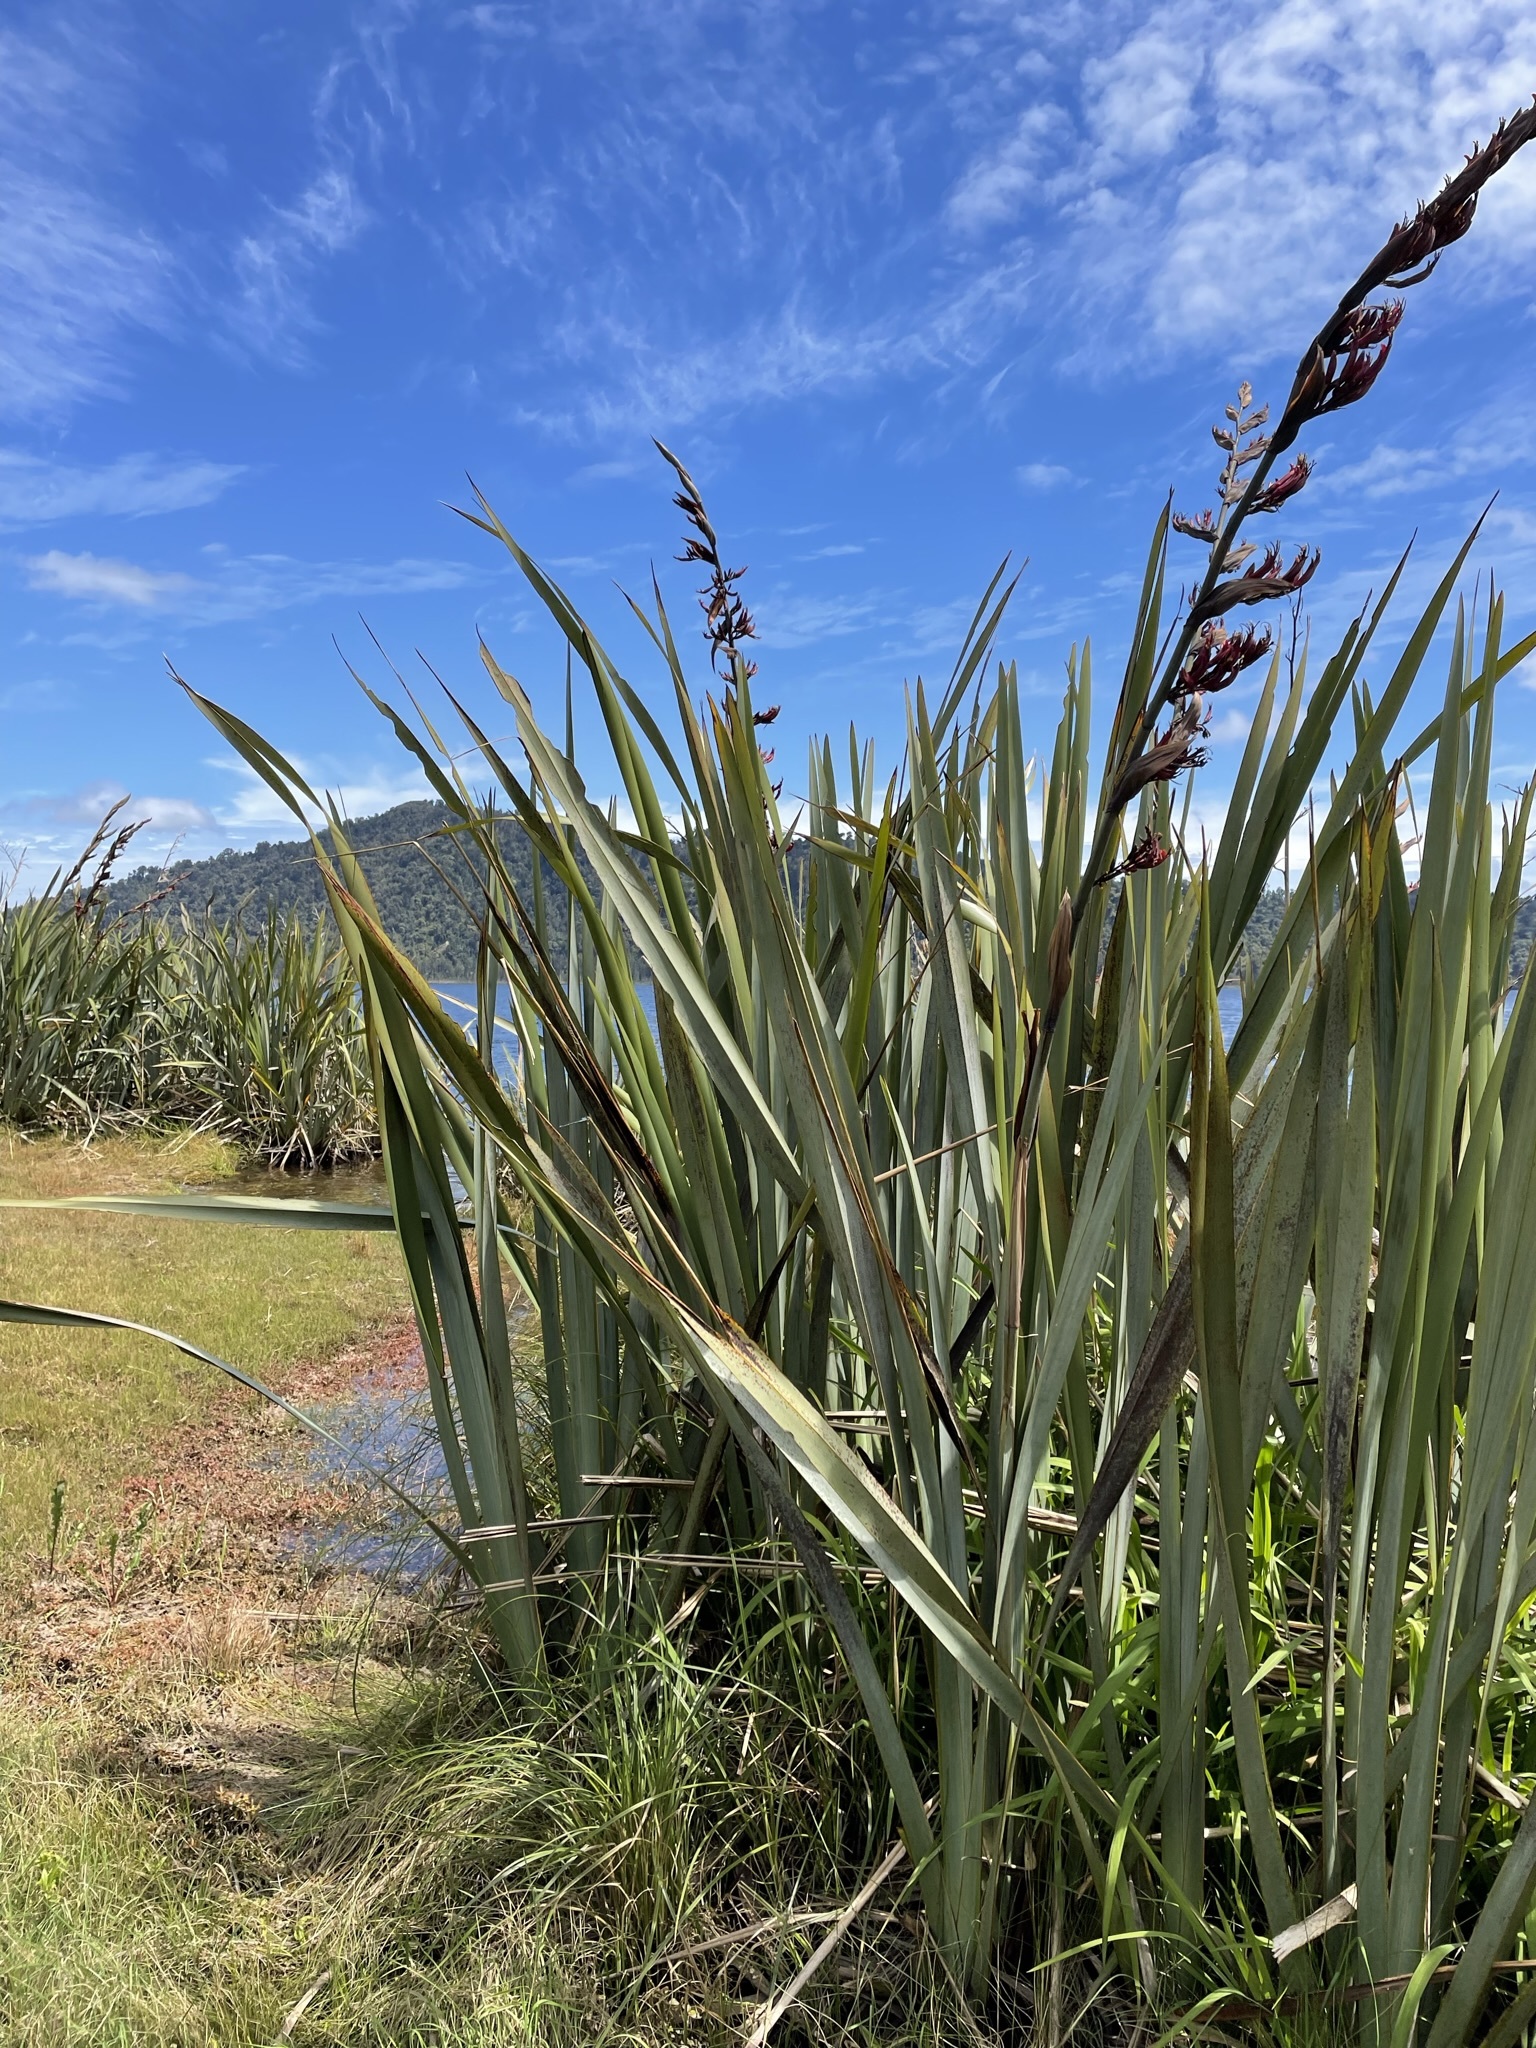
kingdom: Plantae
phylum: Tracheophyta
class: Liliopsida
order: Asparagales
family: Asphodelaceae
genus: Phormium
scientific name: Phormium tenax
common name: New zealand flax
